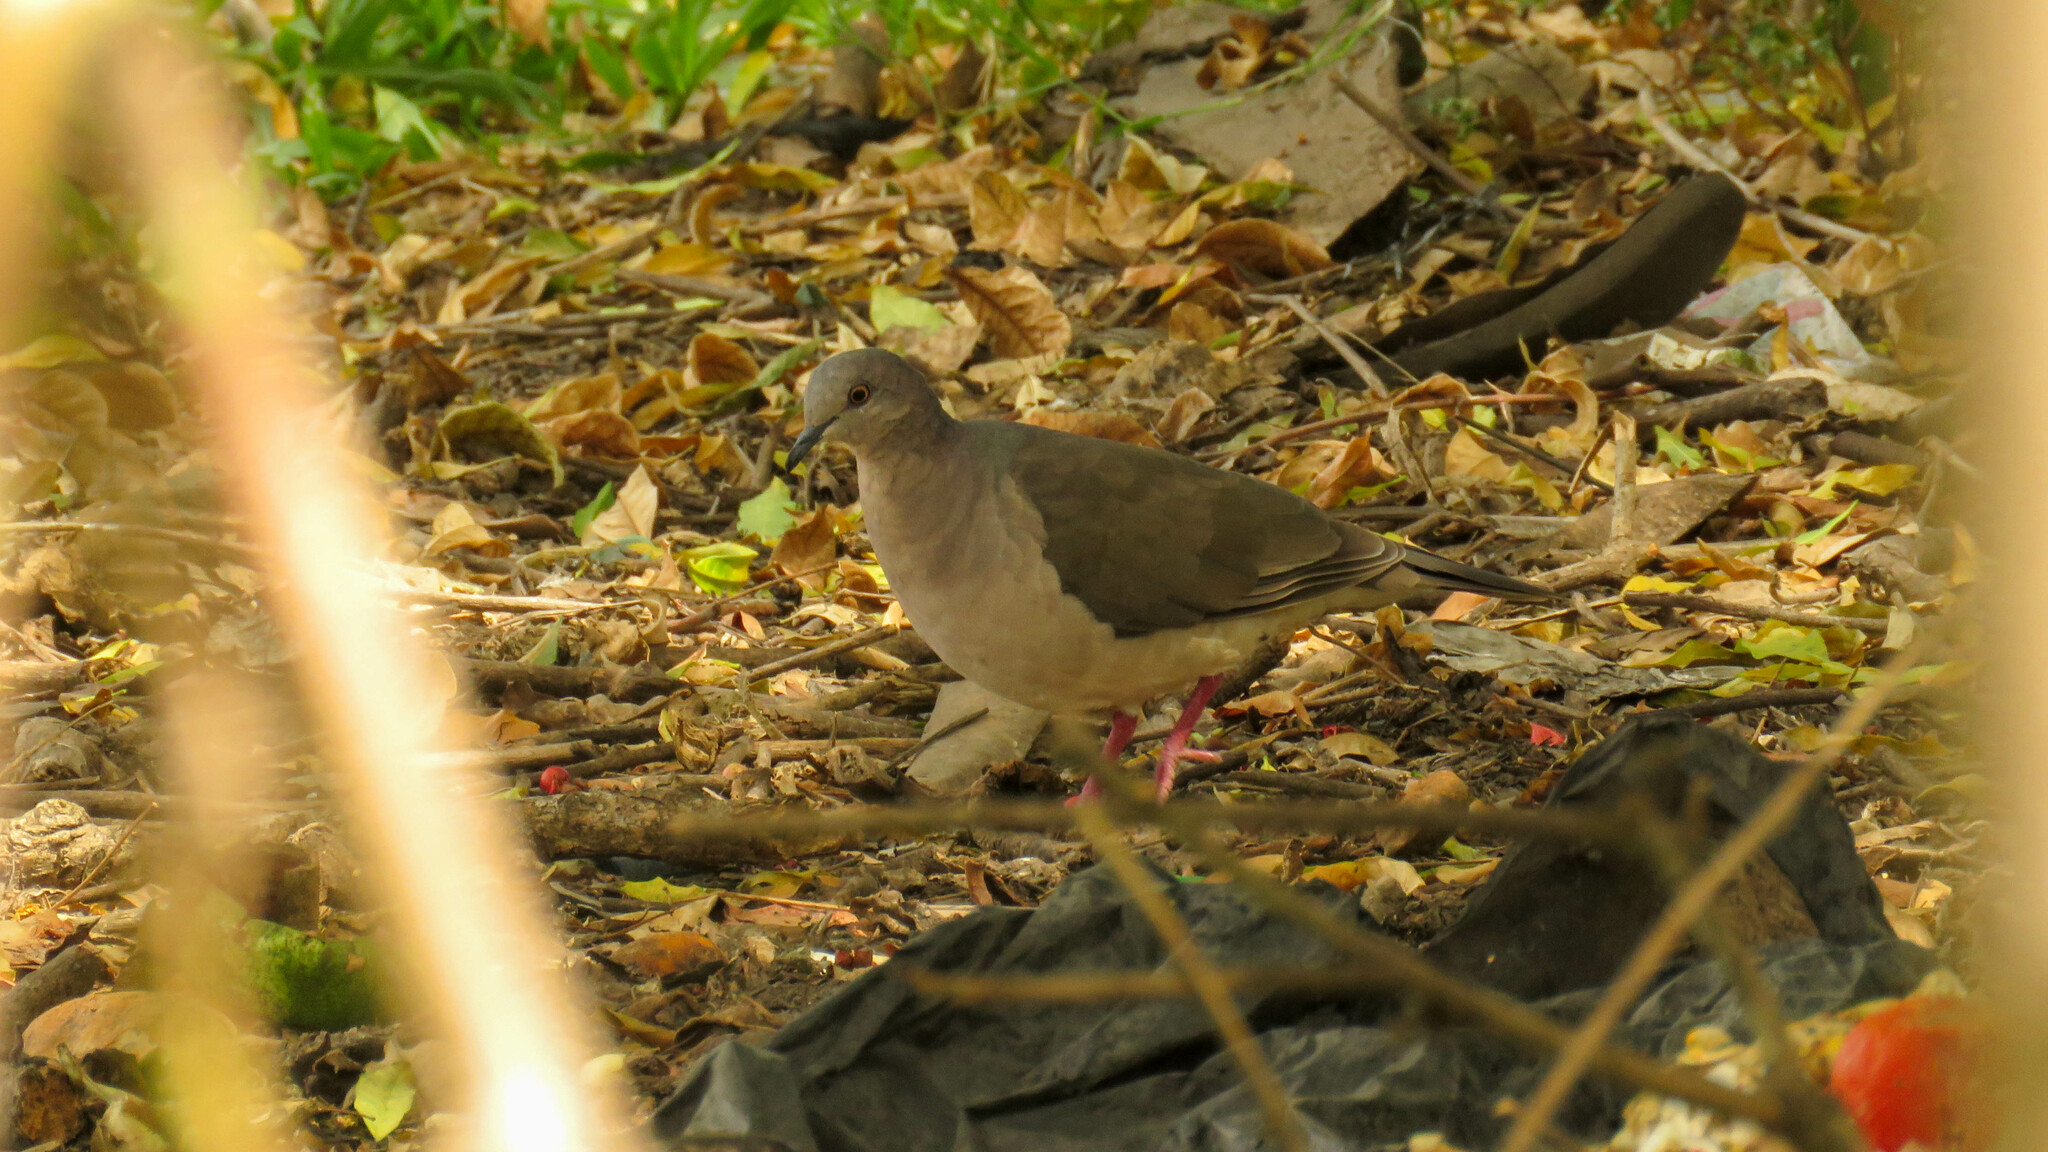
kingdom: Animalia
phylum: Chordata
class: Aves
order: Columbiformes
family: Columbidae
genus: Leptotila
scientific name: Leptotila verreauxi
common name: White-tipped dove
